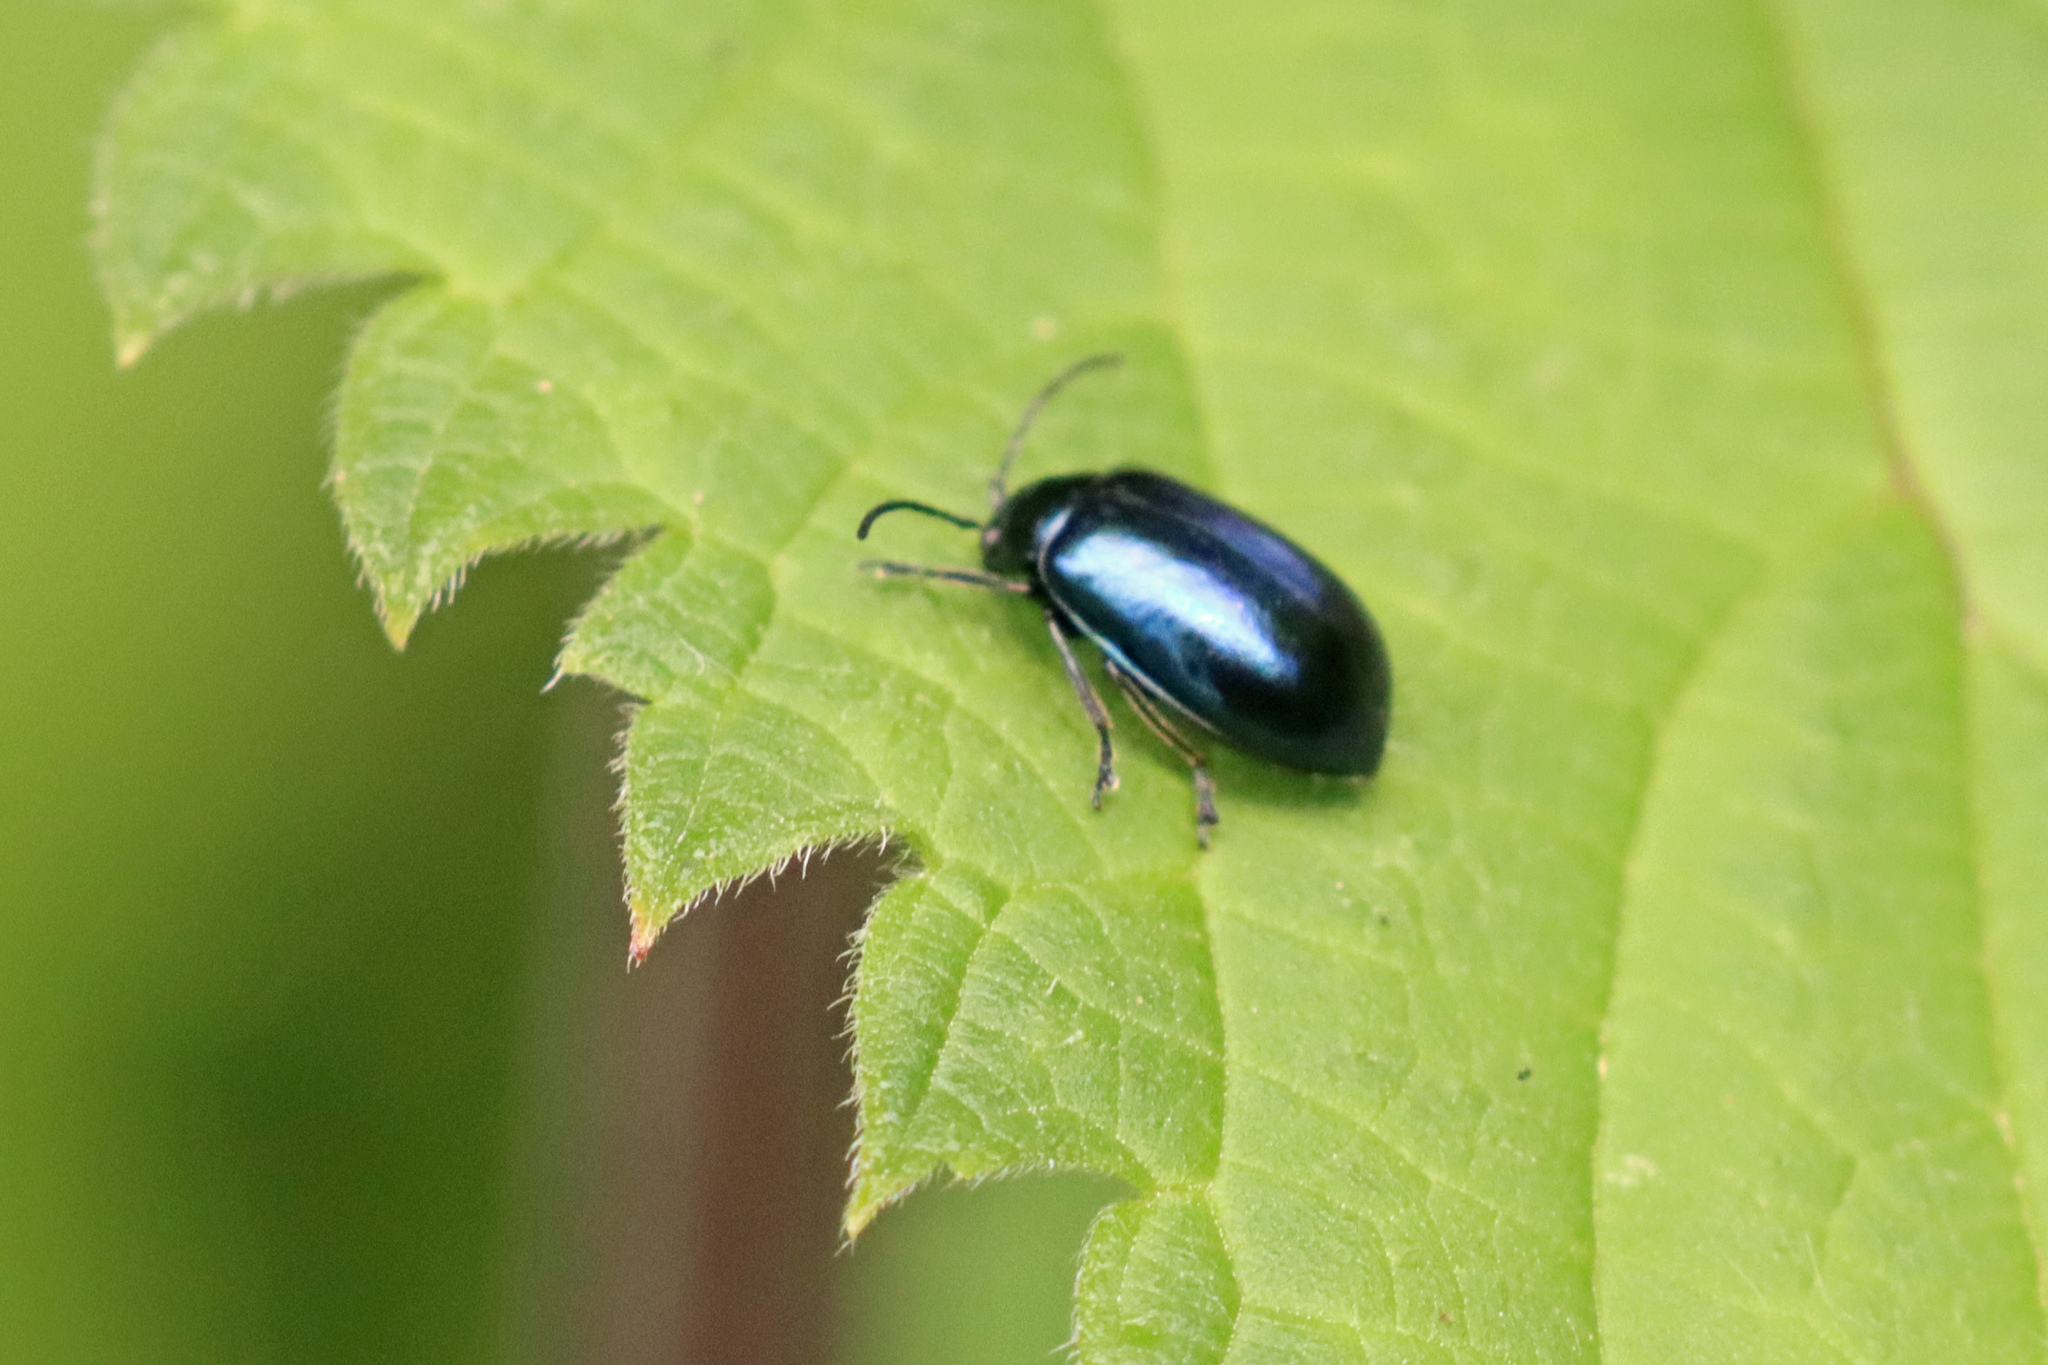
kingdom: Animalia
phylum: Arthropoda
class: Insecta
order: Coleoptera
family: Chrysomelidae
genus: Agelastica
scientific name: Agelastica alni
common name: Alder leaf beetle
